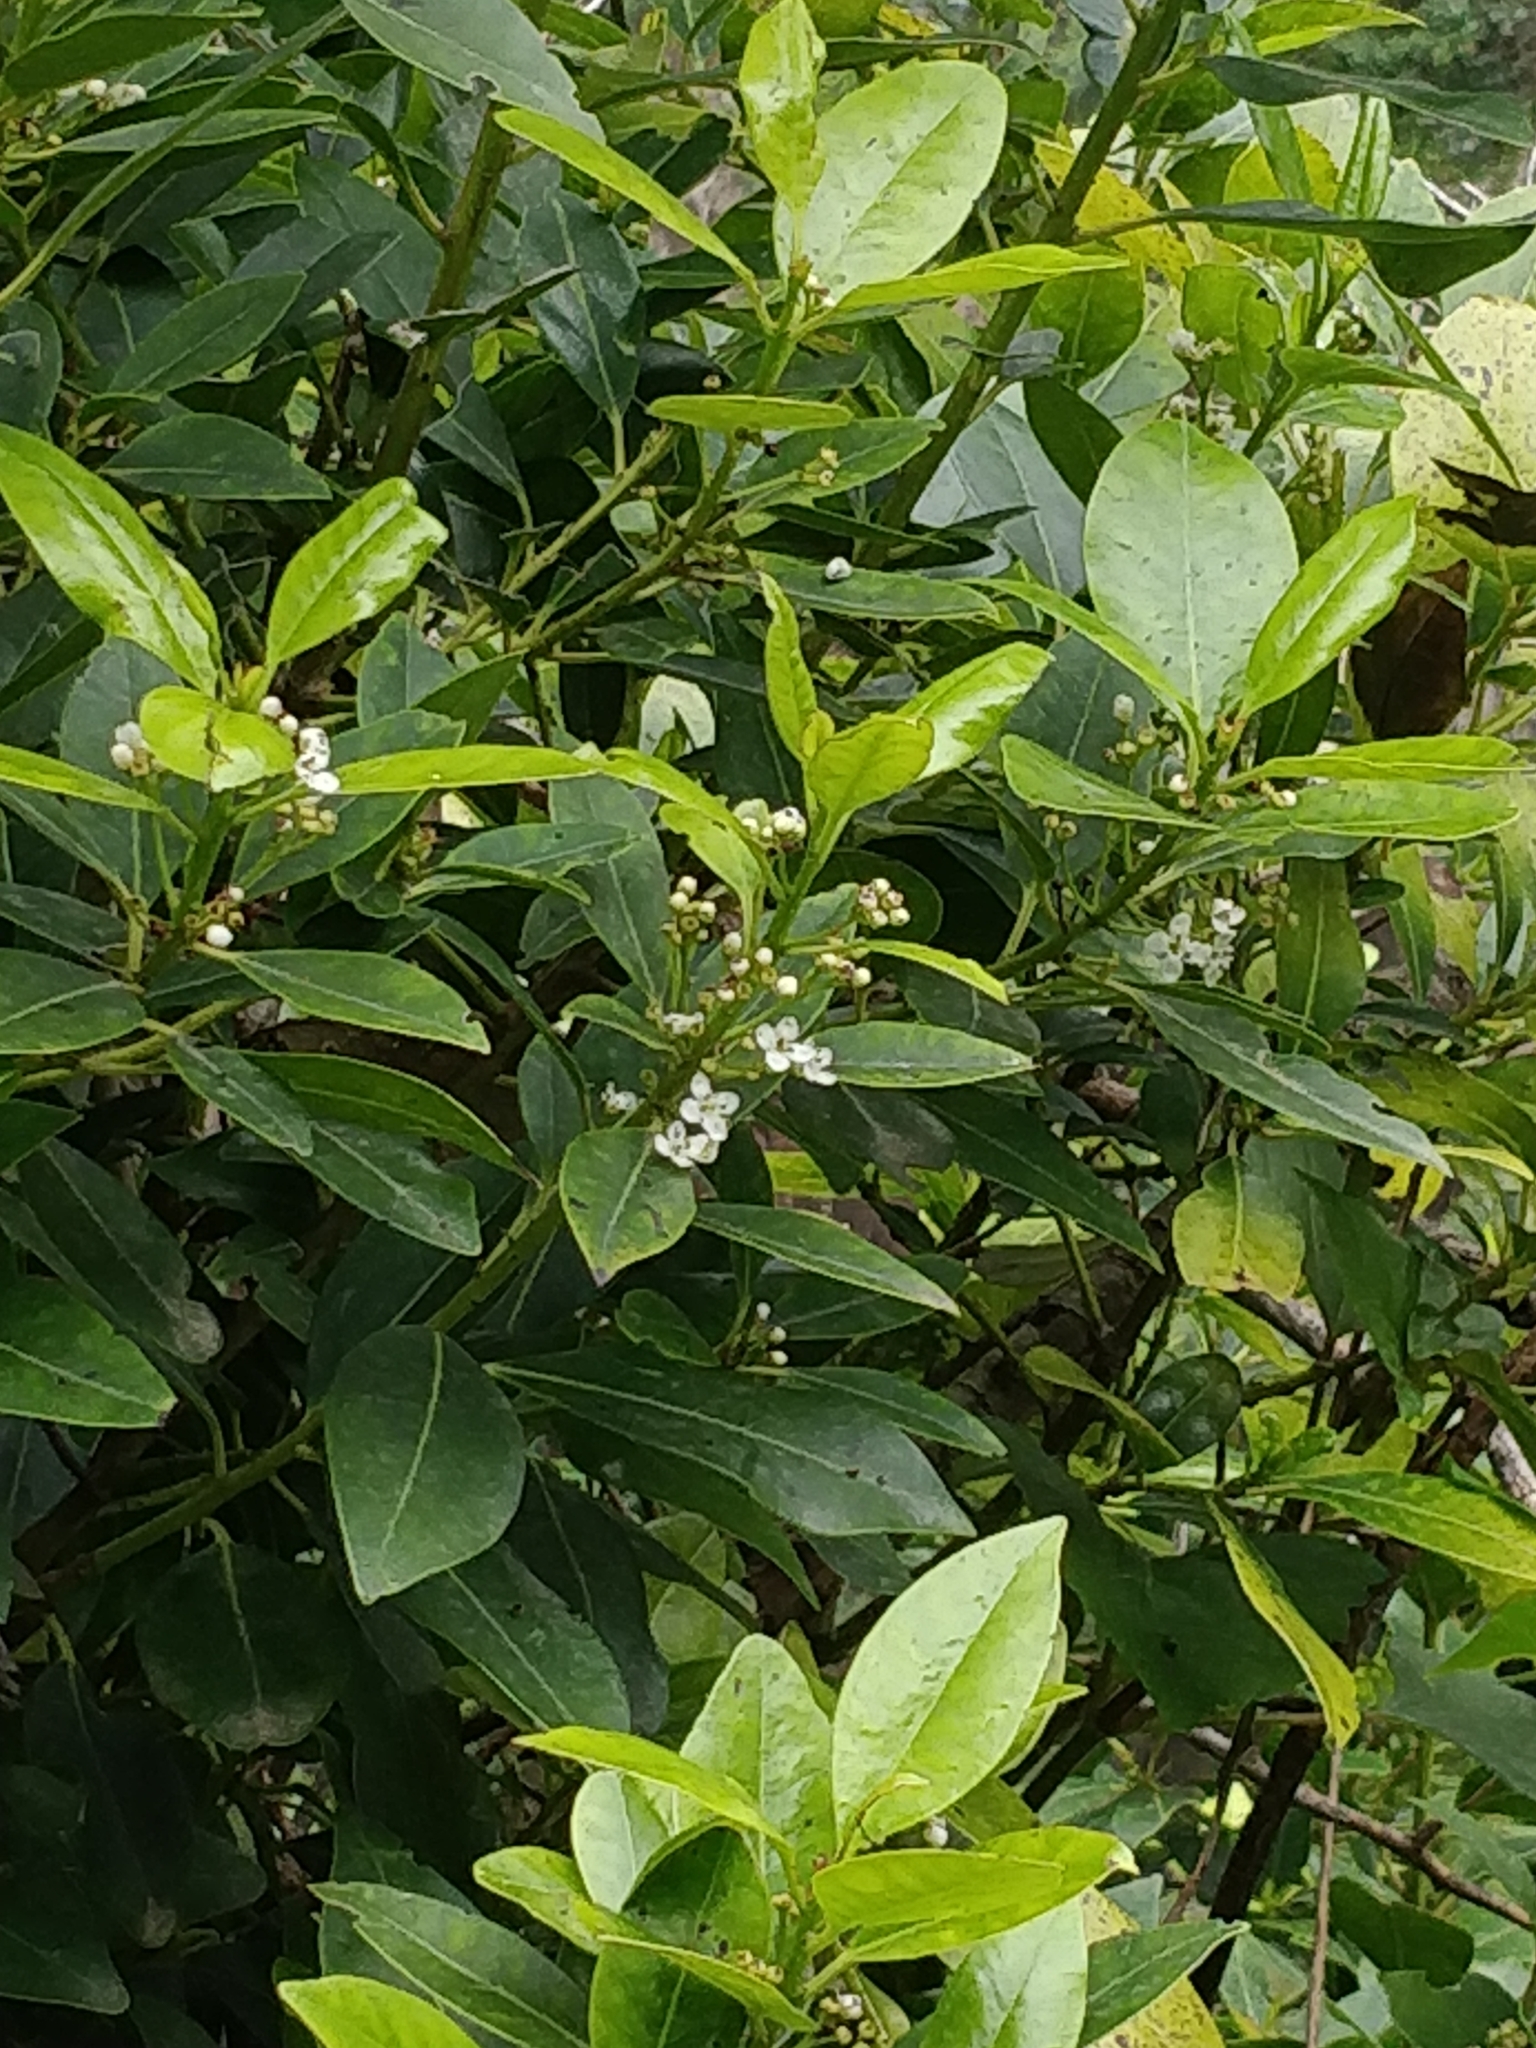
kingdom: Plantae
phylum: Tracheophyta
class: Magnoliopsida
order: Aquifoliales
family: Aquifoliaceae
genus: Ilex
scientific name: Ilex canariensis
